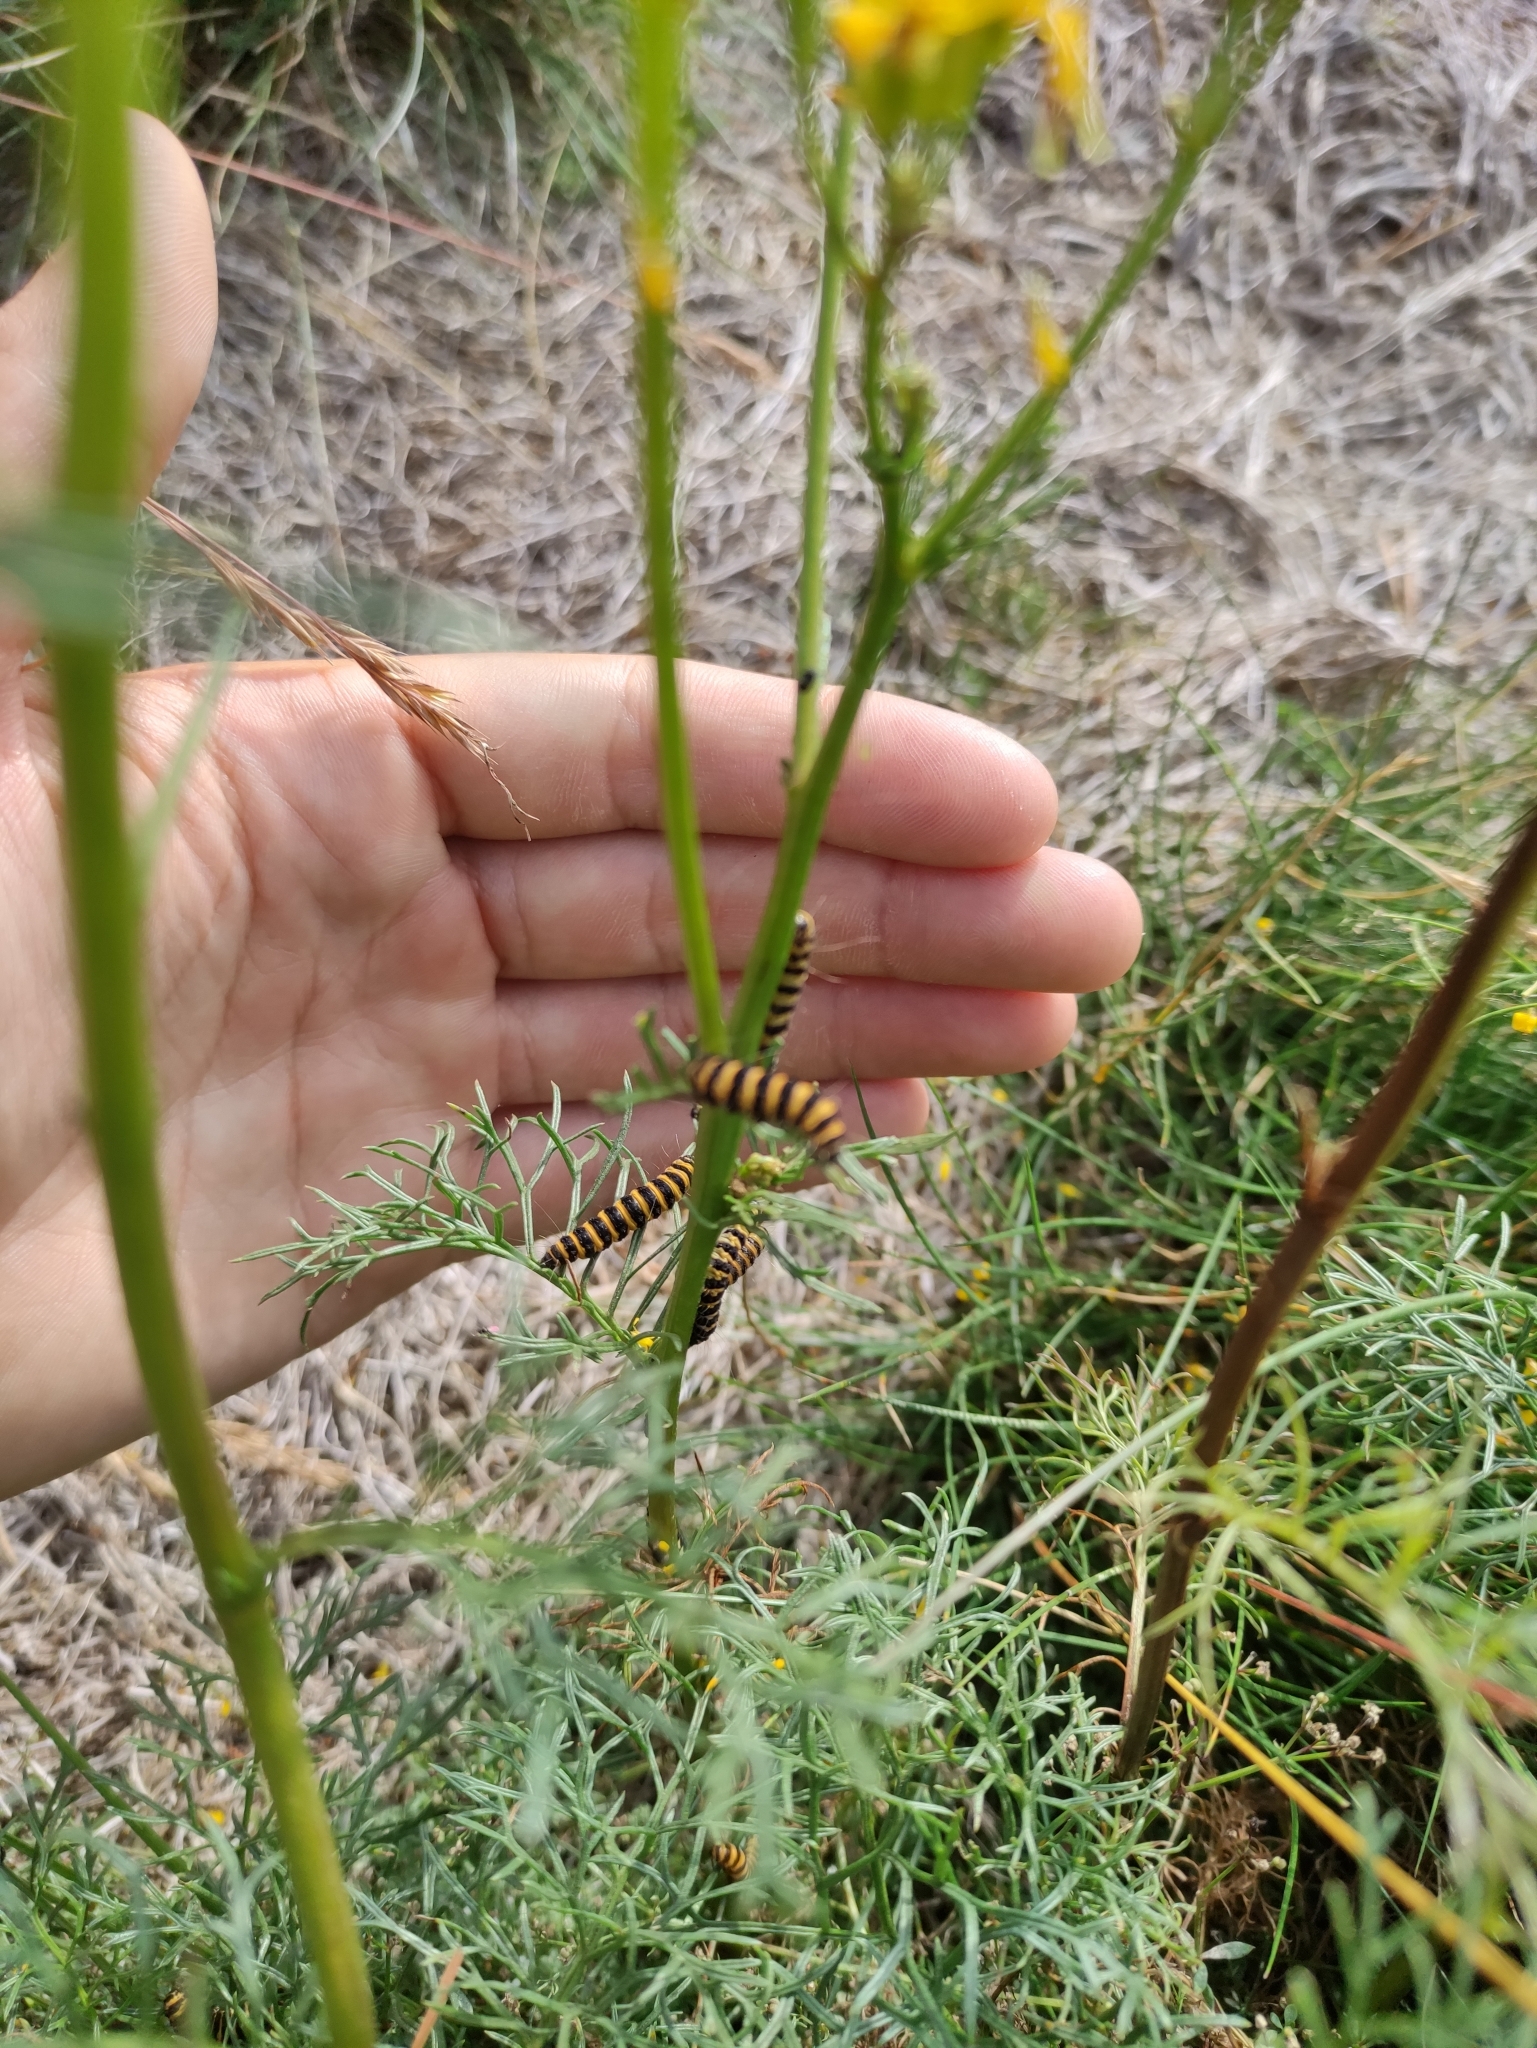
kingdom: Animalia
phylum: Arthropoda
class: Insecta
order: Lepidoptera
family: Erebidae
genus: Tyria
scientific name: Tyria jacobaeae
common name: Cinnabar
